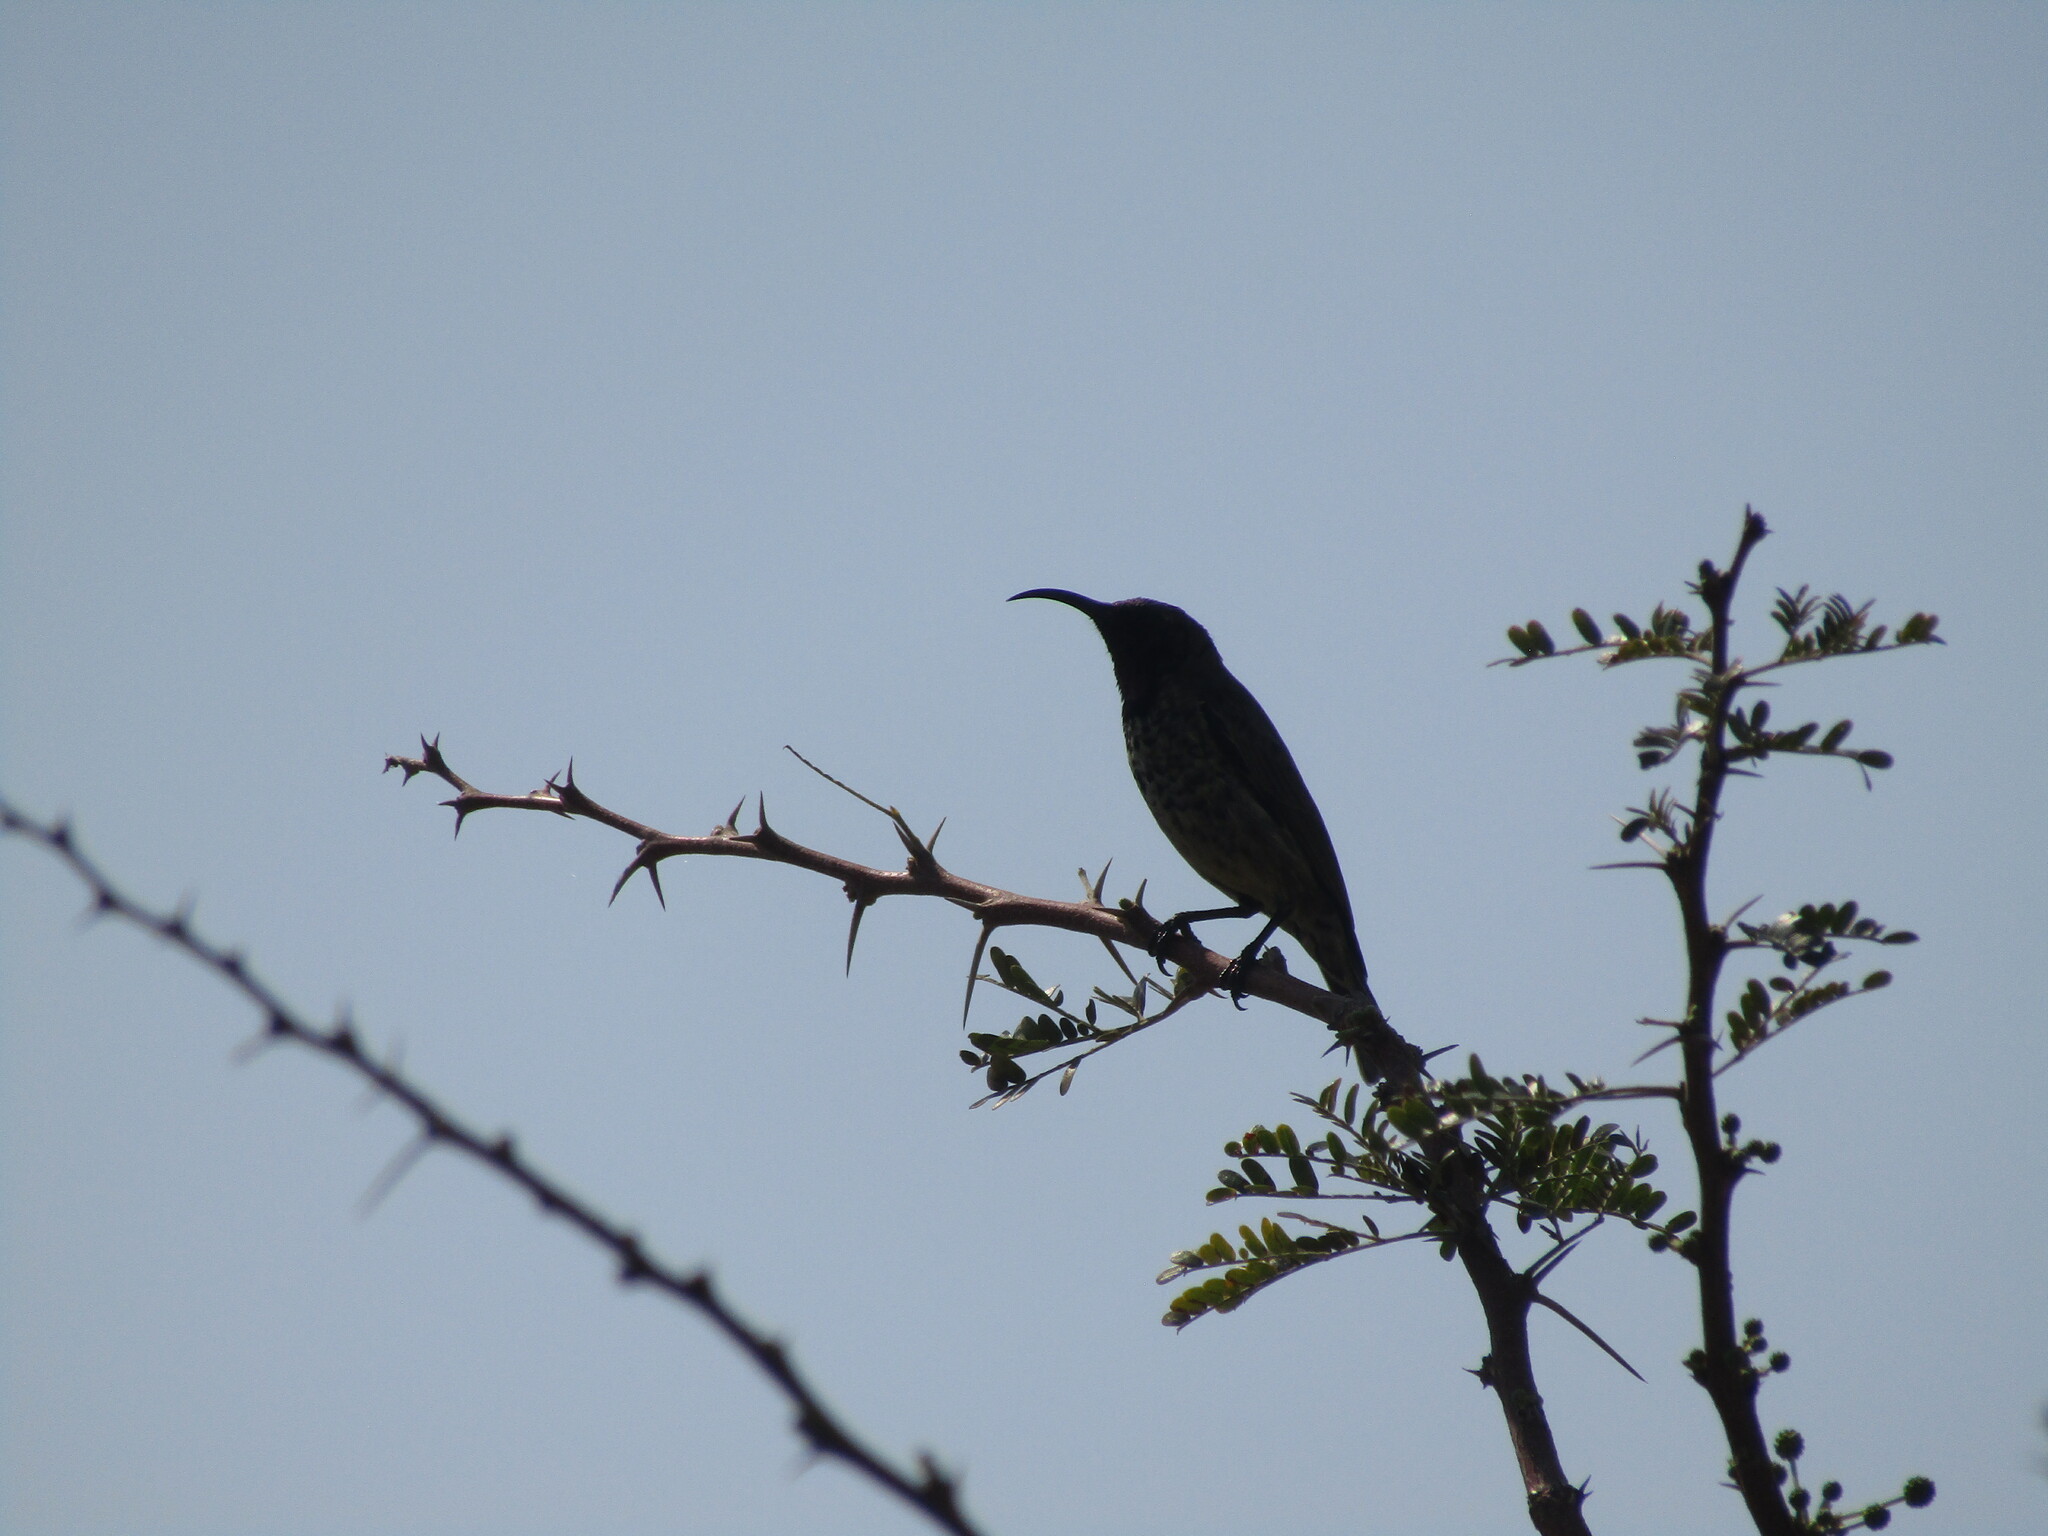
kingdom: Animalia
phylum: Chordata
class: Aves
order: Passeriformes
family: Nectariniidae
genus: Chalcomitra
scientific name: Chalcomitra senegalensis
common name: Scarlet-chested sunbird
